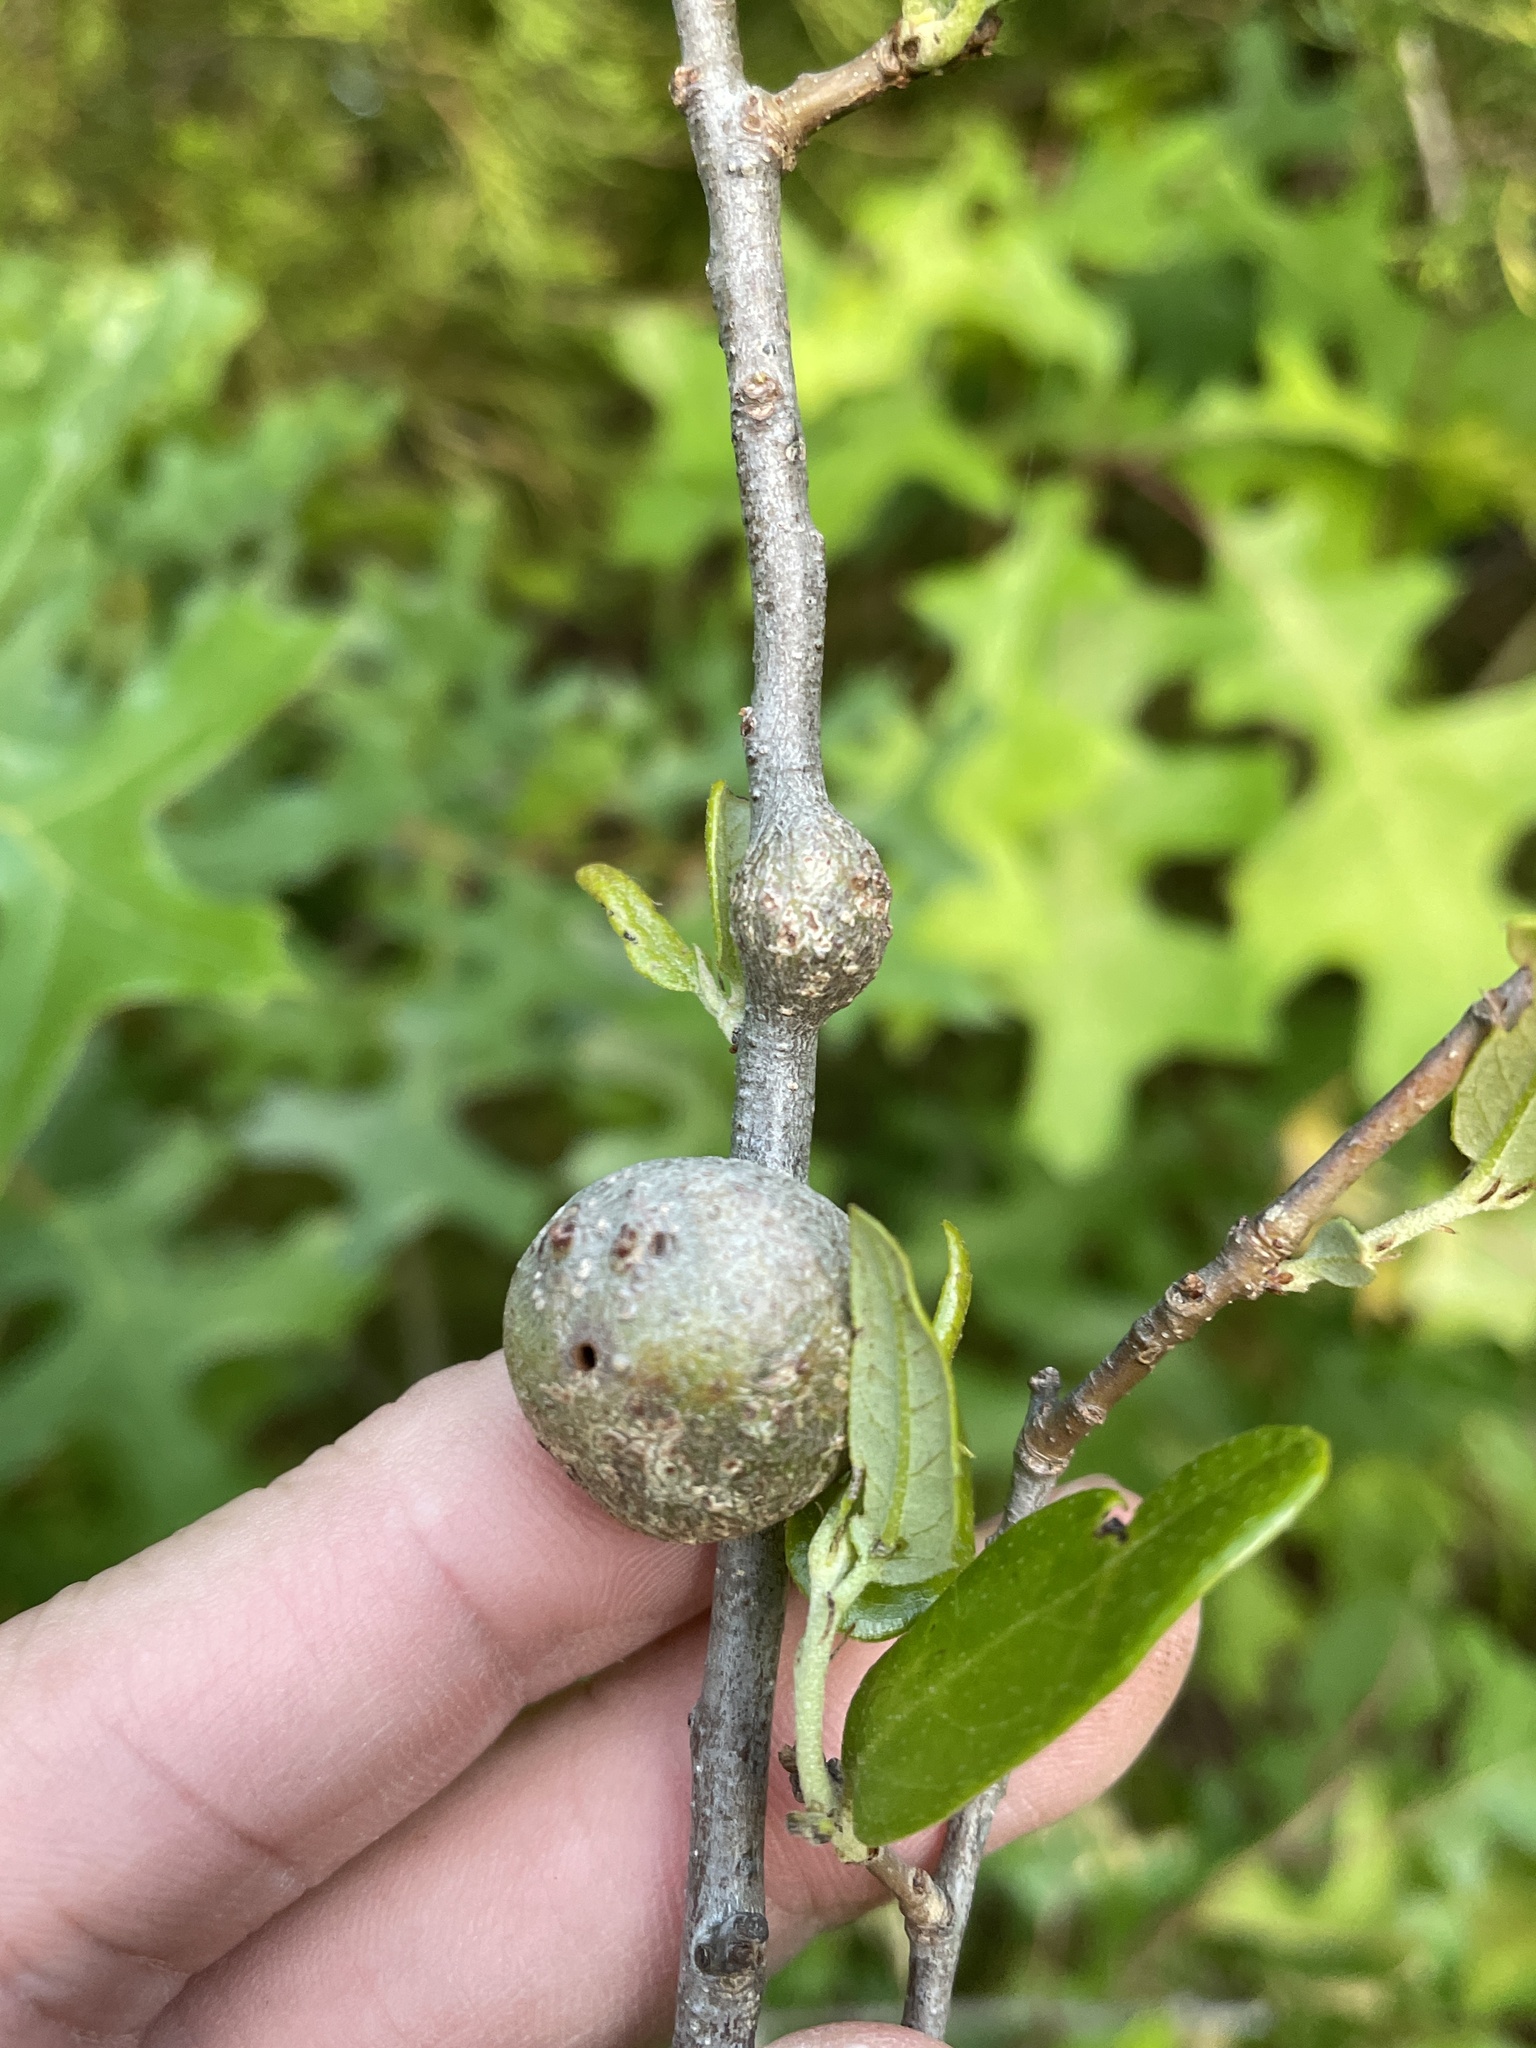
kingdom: Animalia
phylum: Arthropoda
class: Insecta
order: Hymenoptera
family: Cynipidae
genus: Callirhytis
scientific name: Callirhytis
